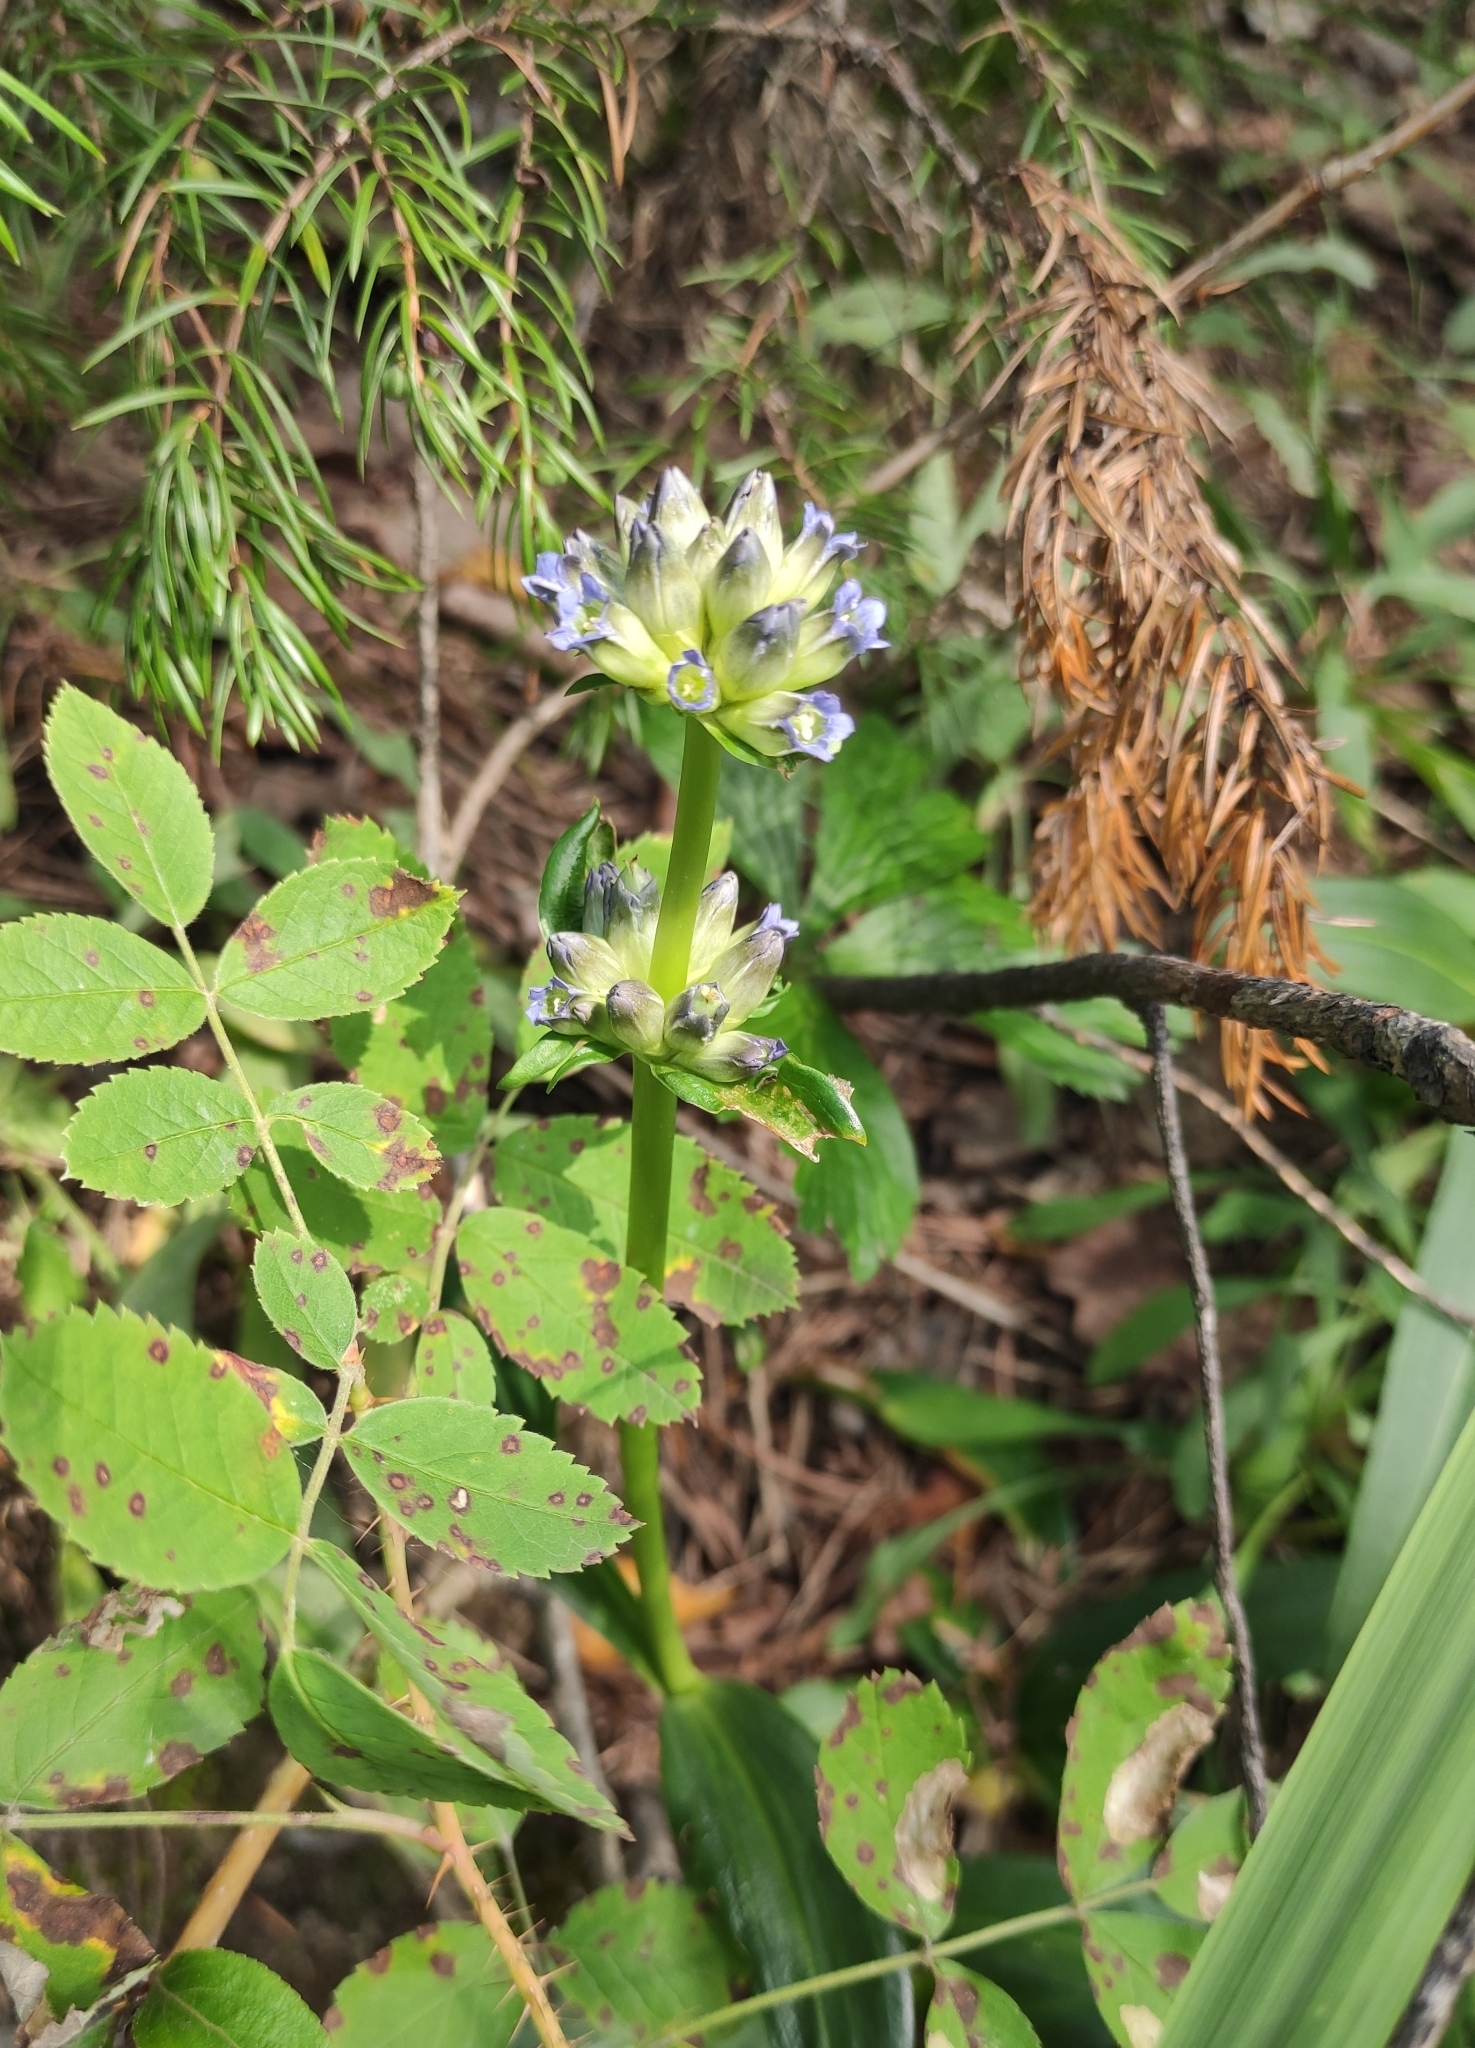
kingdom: Plantae
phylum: Tracheophyta
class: Magnoliopsida
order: Gentianales
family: Gentianaceae
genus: Gentiana
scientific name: Gentiana macrophylla
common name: Large-leaf gentian
